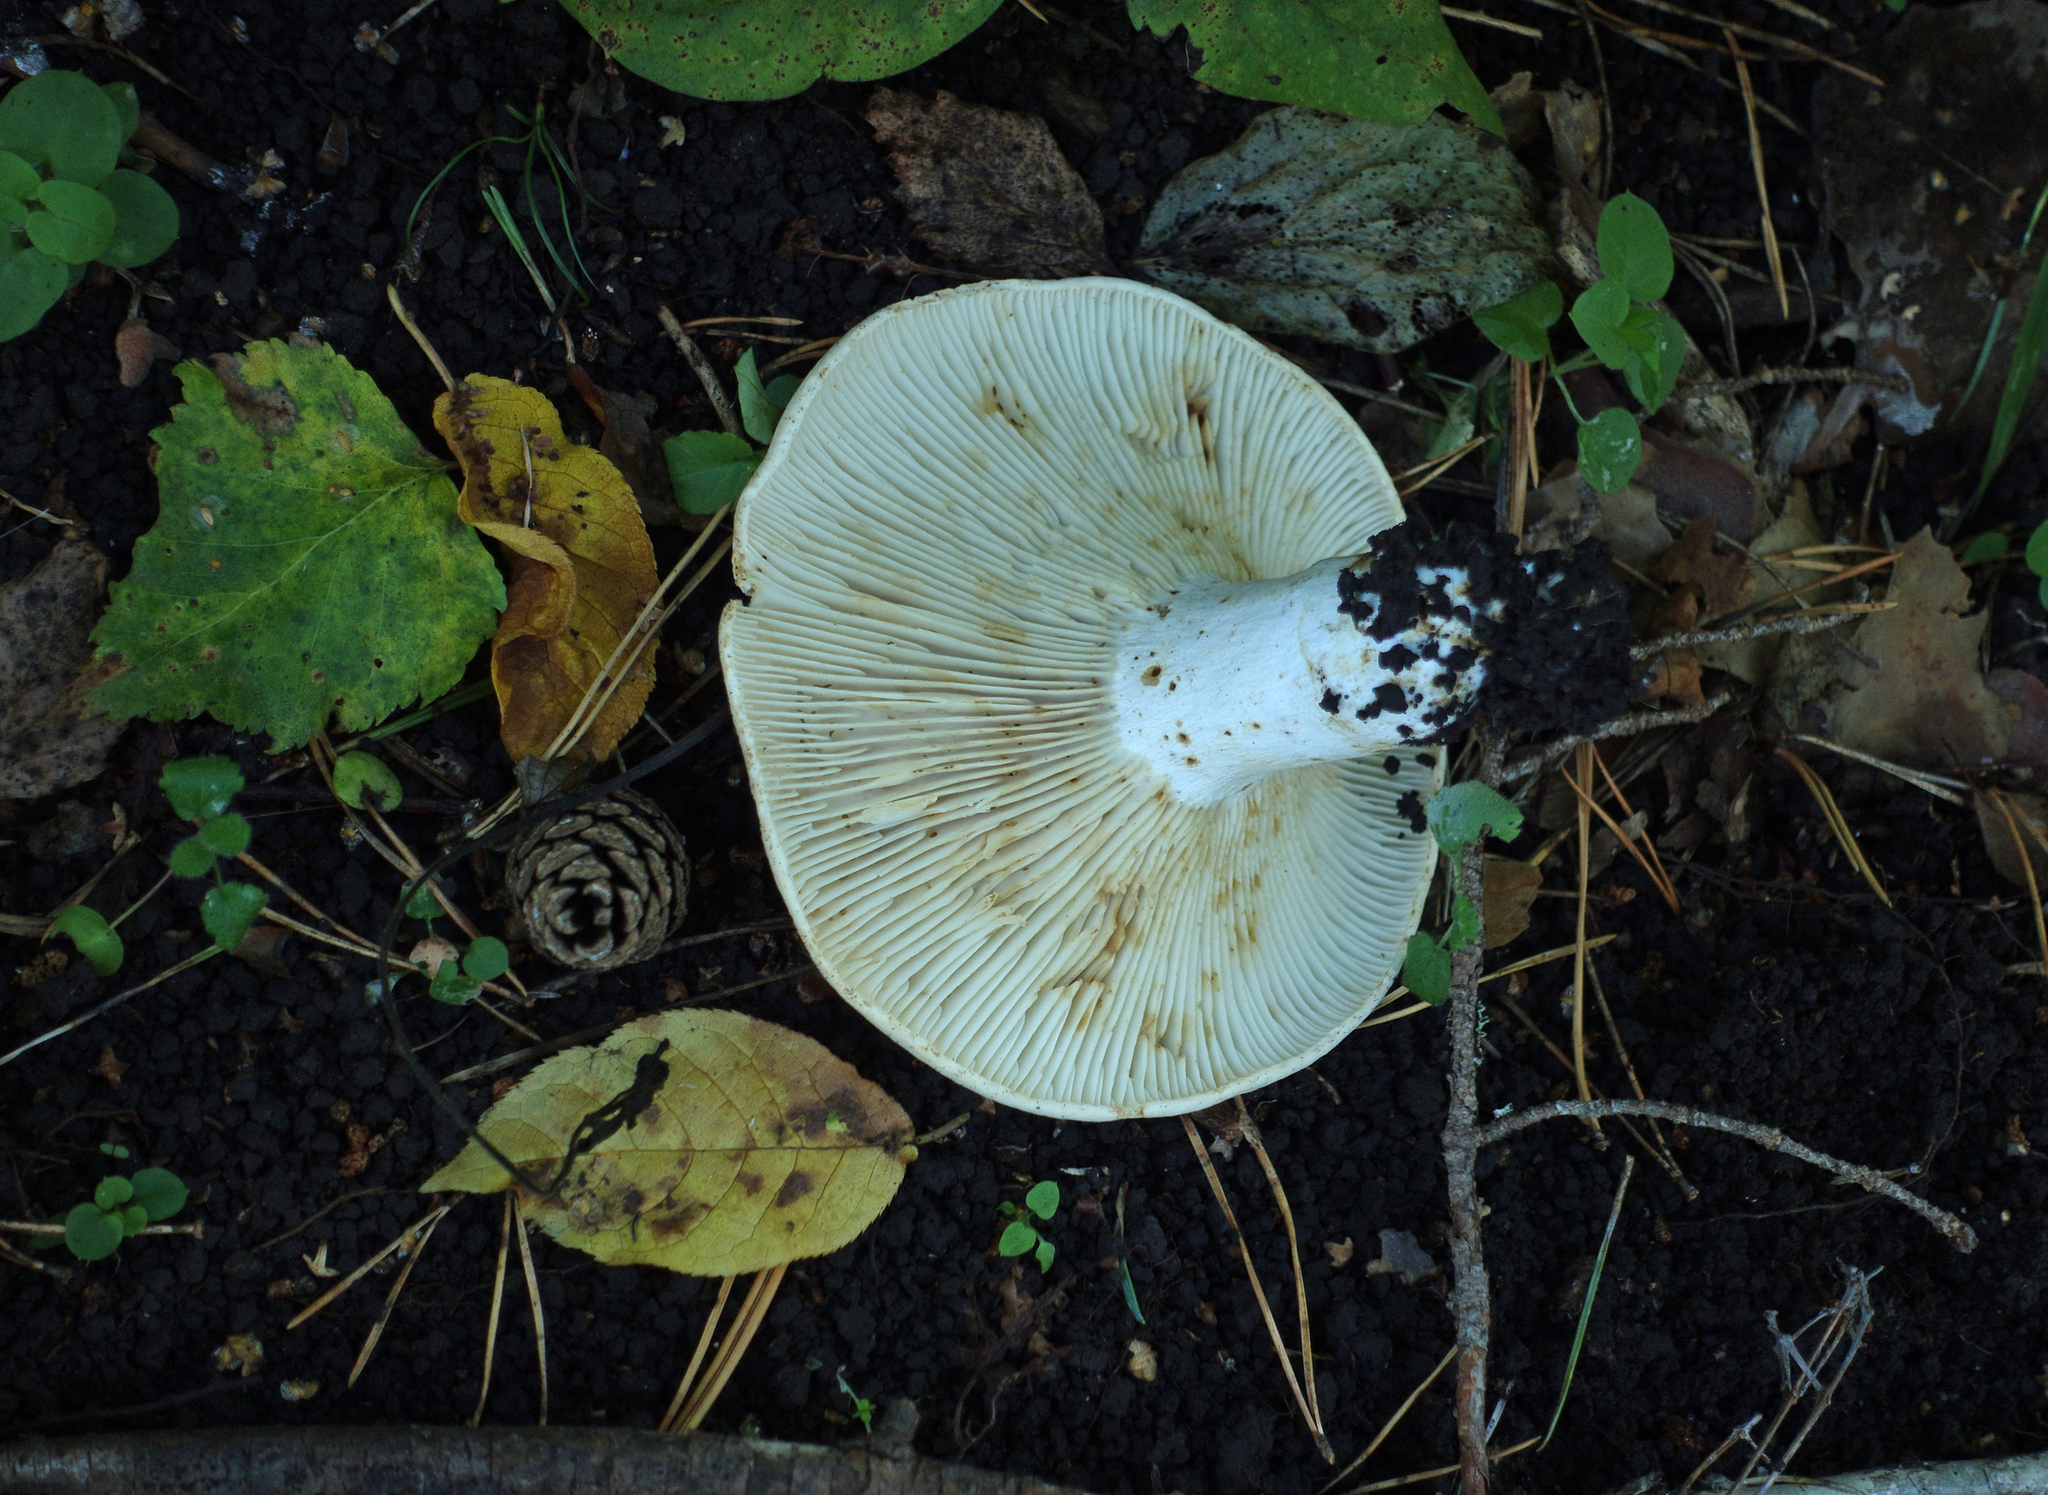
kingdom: Fungi
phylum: Basidiomycota
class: Agaricomycetes
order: Russulales
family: Russulaceae
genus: Russula
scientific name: Russula delica
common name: Milk white brittlegill
